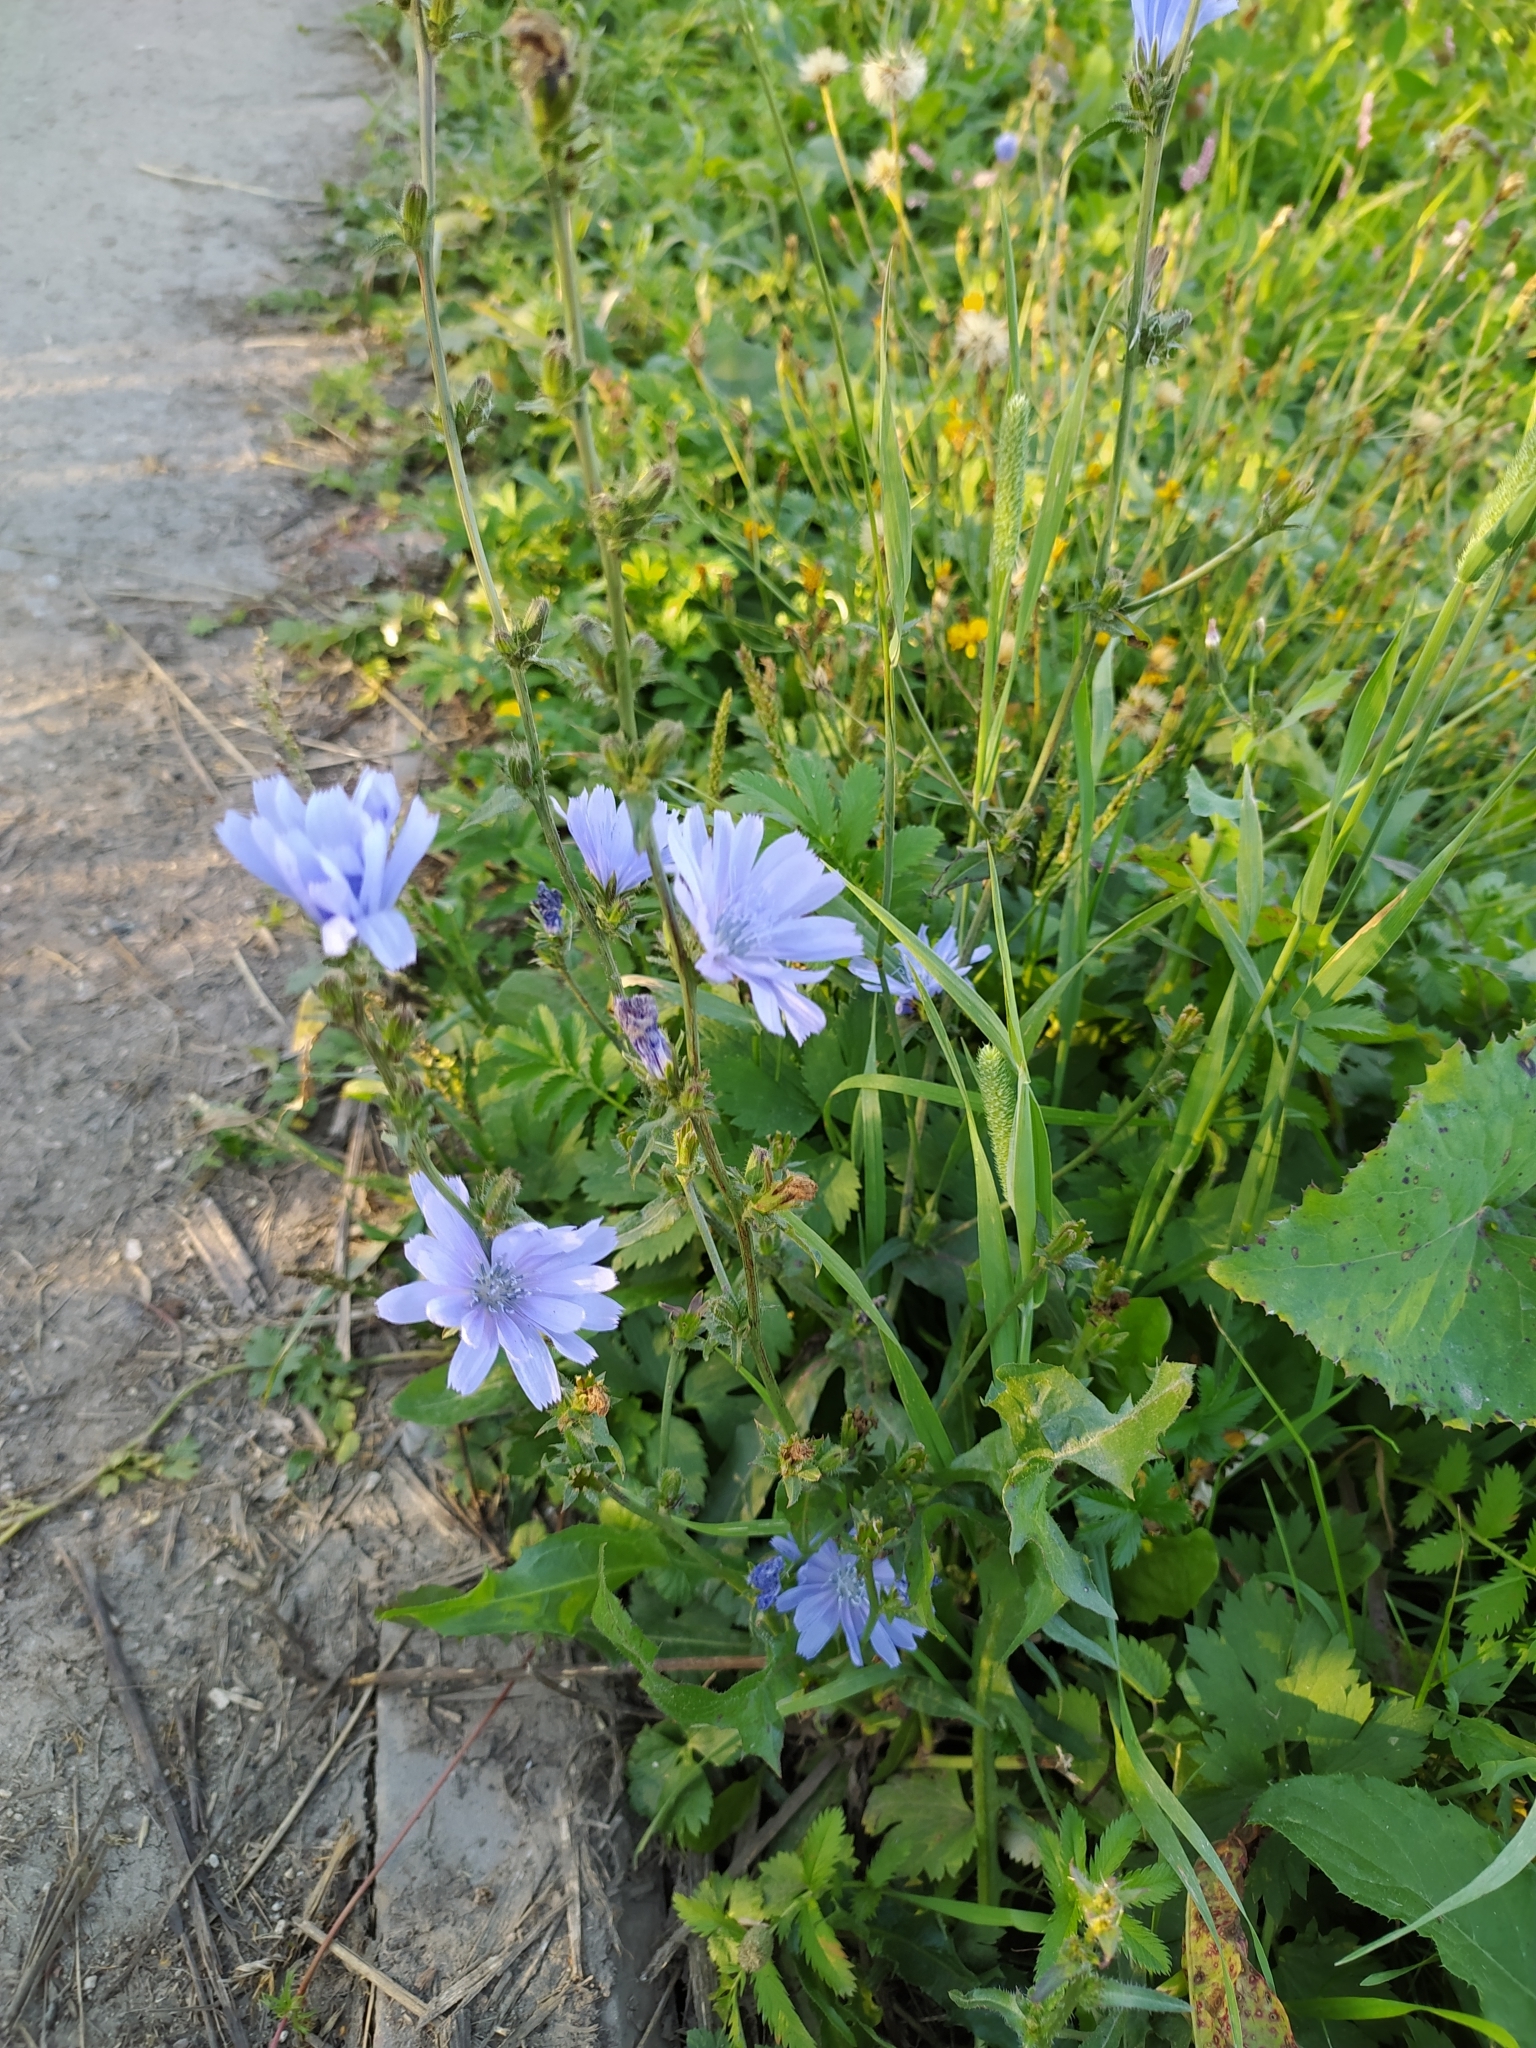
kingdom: Plantae
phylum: Tracheophyta
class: Magnoliopsida
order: Asterales
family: Asteraceae
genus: Cichorium
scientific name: Cichorium intybus
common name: Chicory
